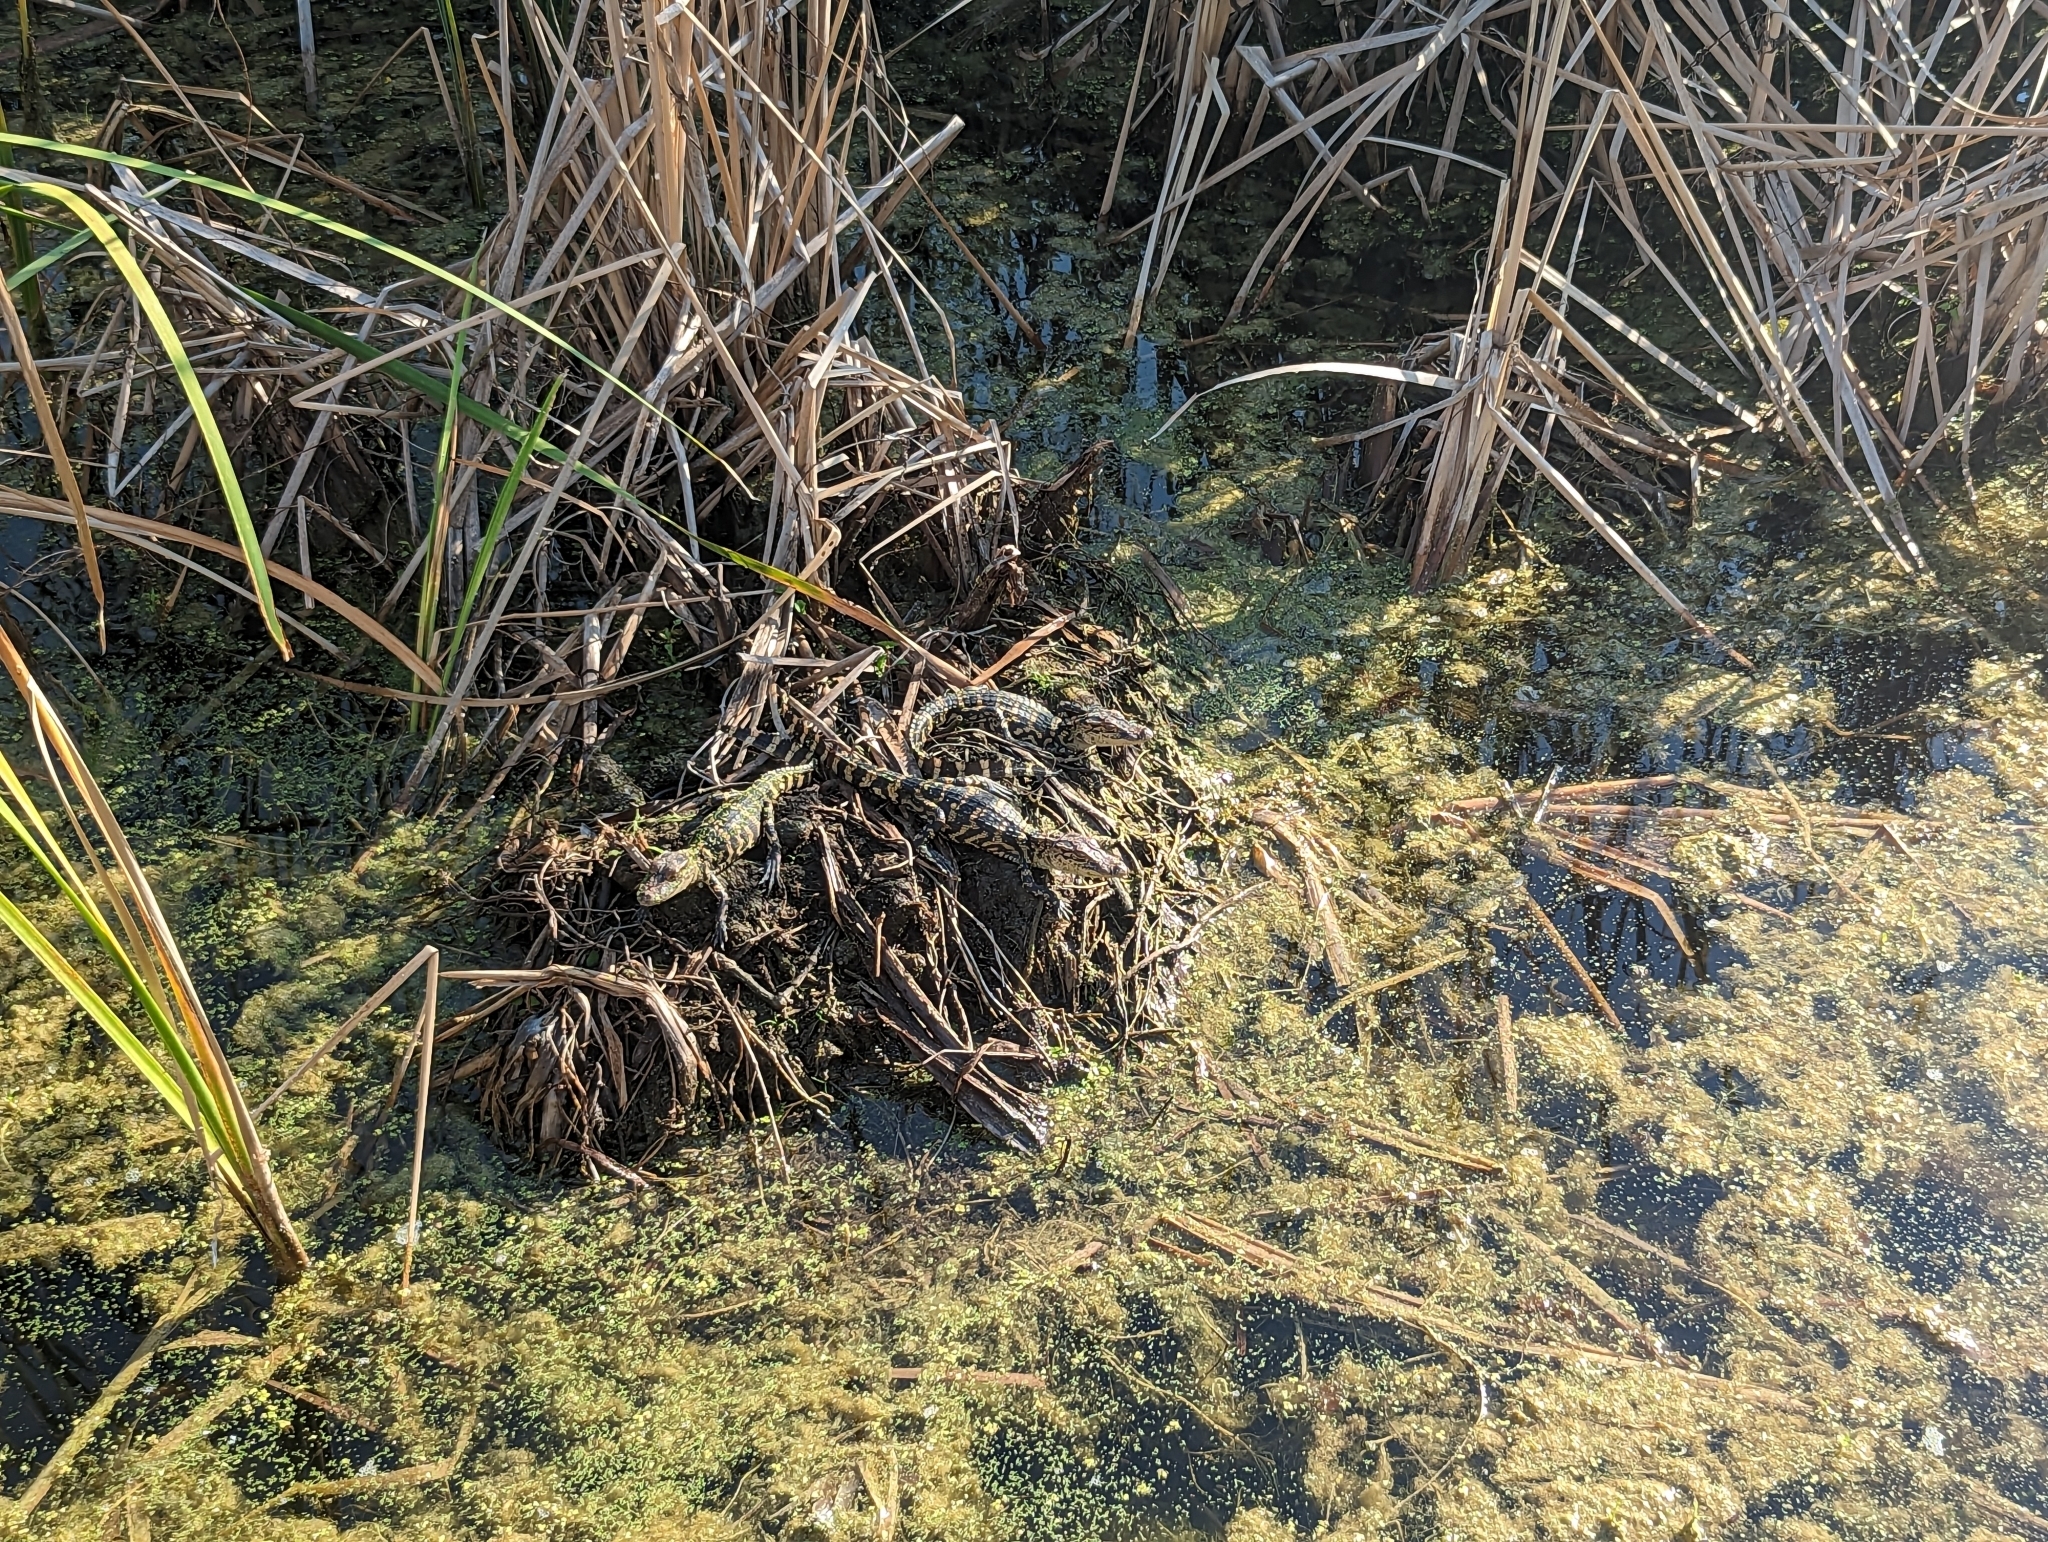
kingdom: Animalia
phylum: Chordata
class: Crocodylia
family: Alligatoridae
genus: Alligator
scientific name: Alligator mississippiensis
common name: American alligator
